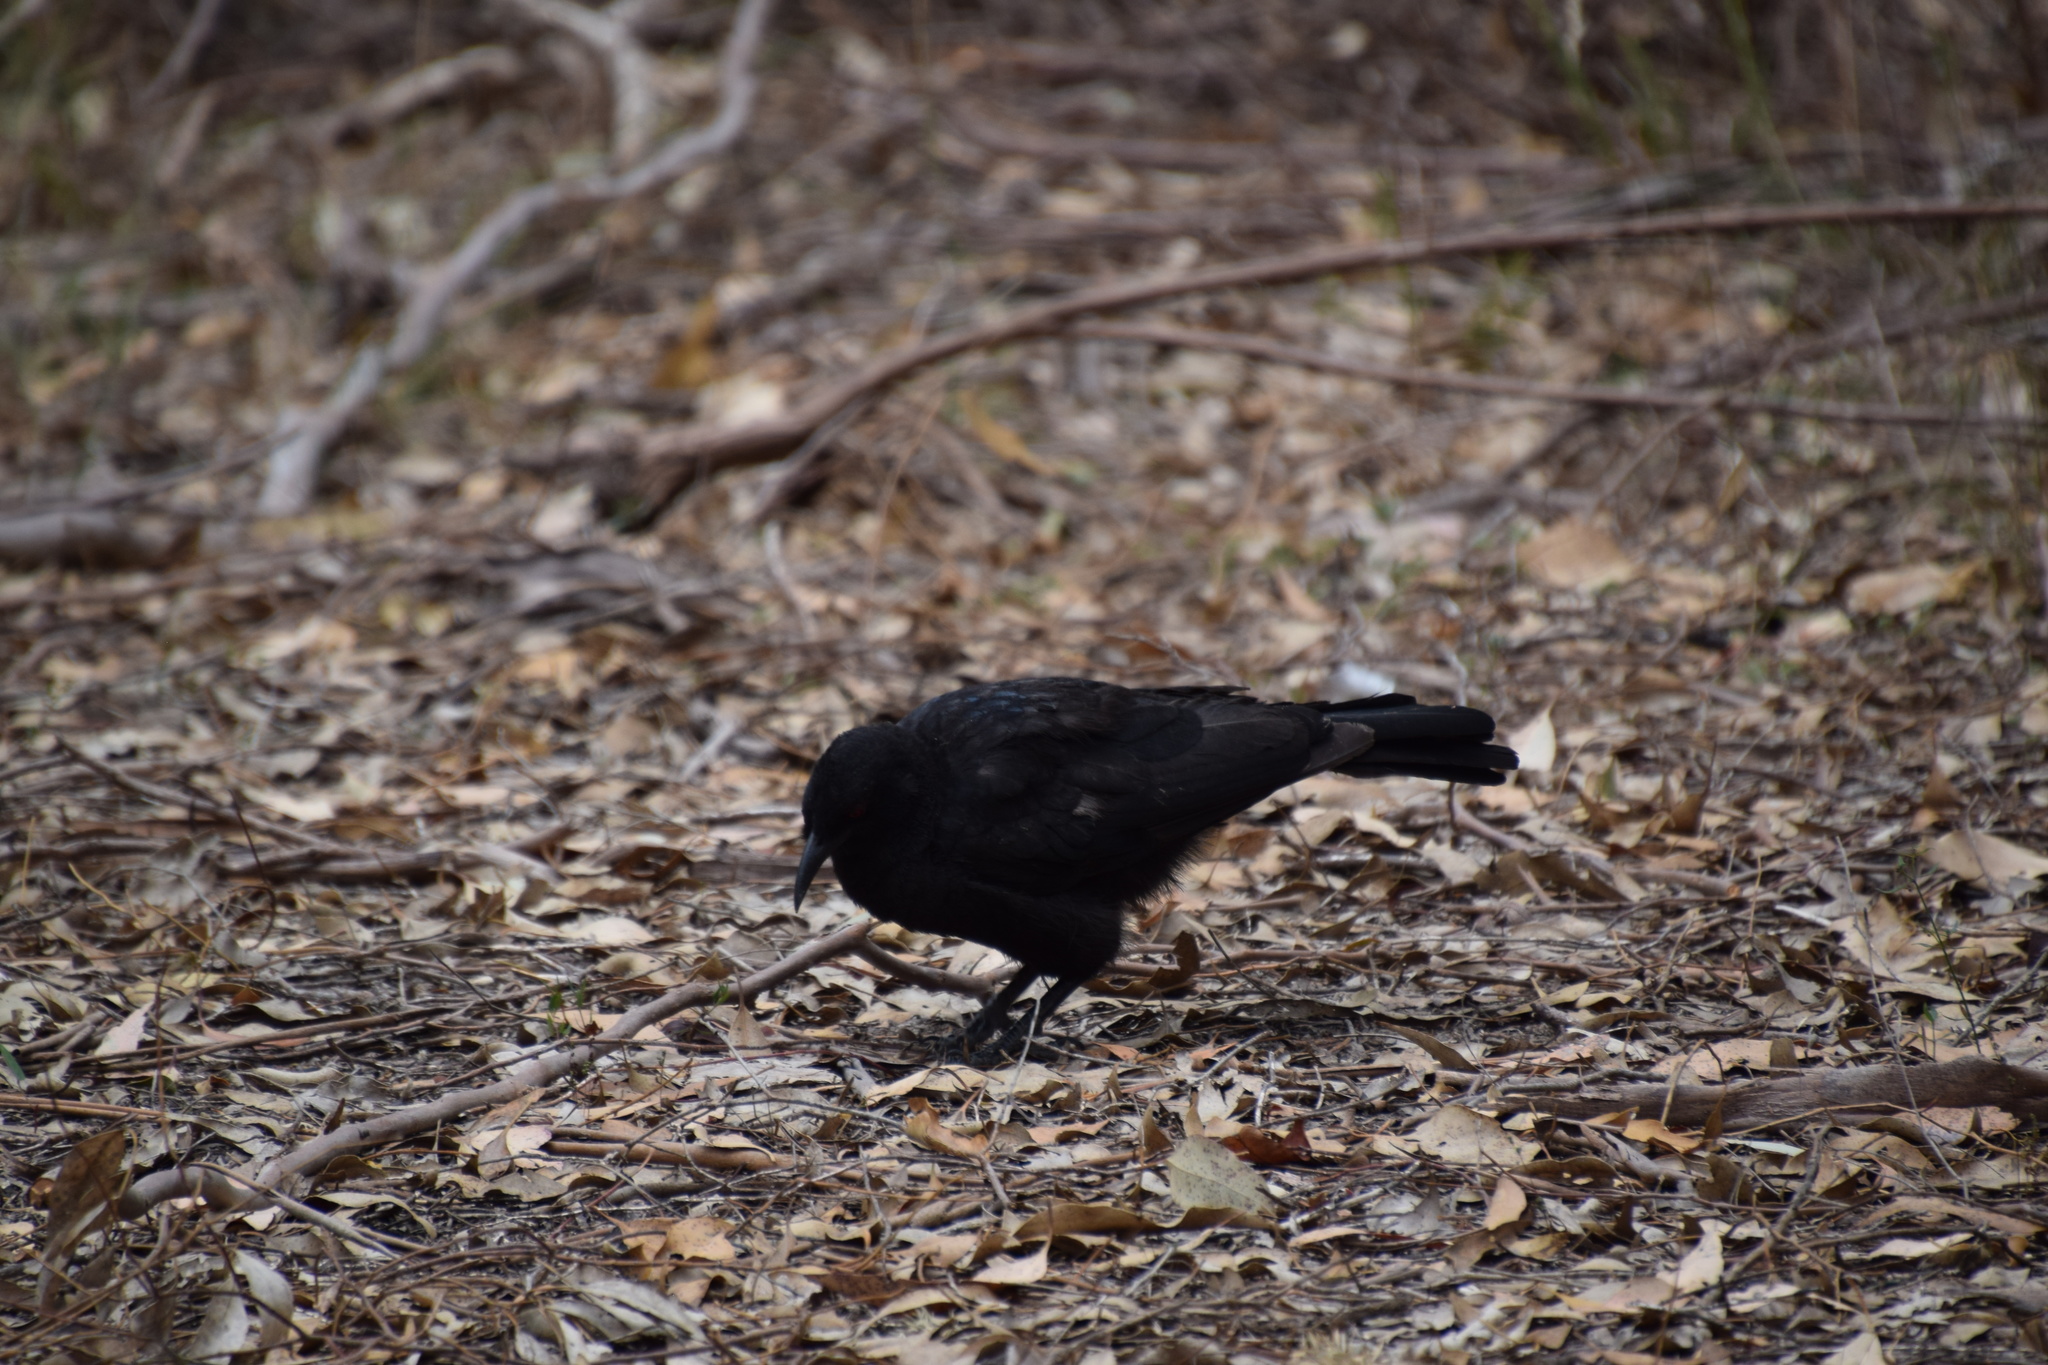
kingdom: Animalia
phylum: Chordata
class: Aves
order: Passeriformes
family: Corcoracidae
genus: Corcorax
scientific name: Corcorax melanoramphos
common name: White-winged chough
